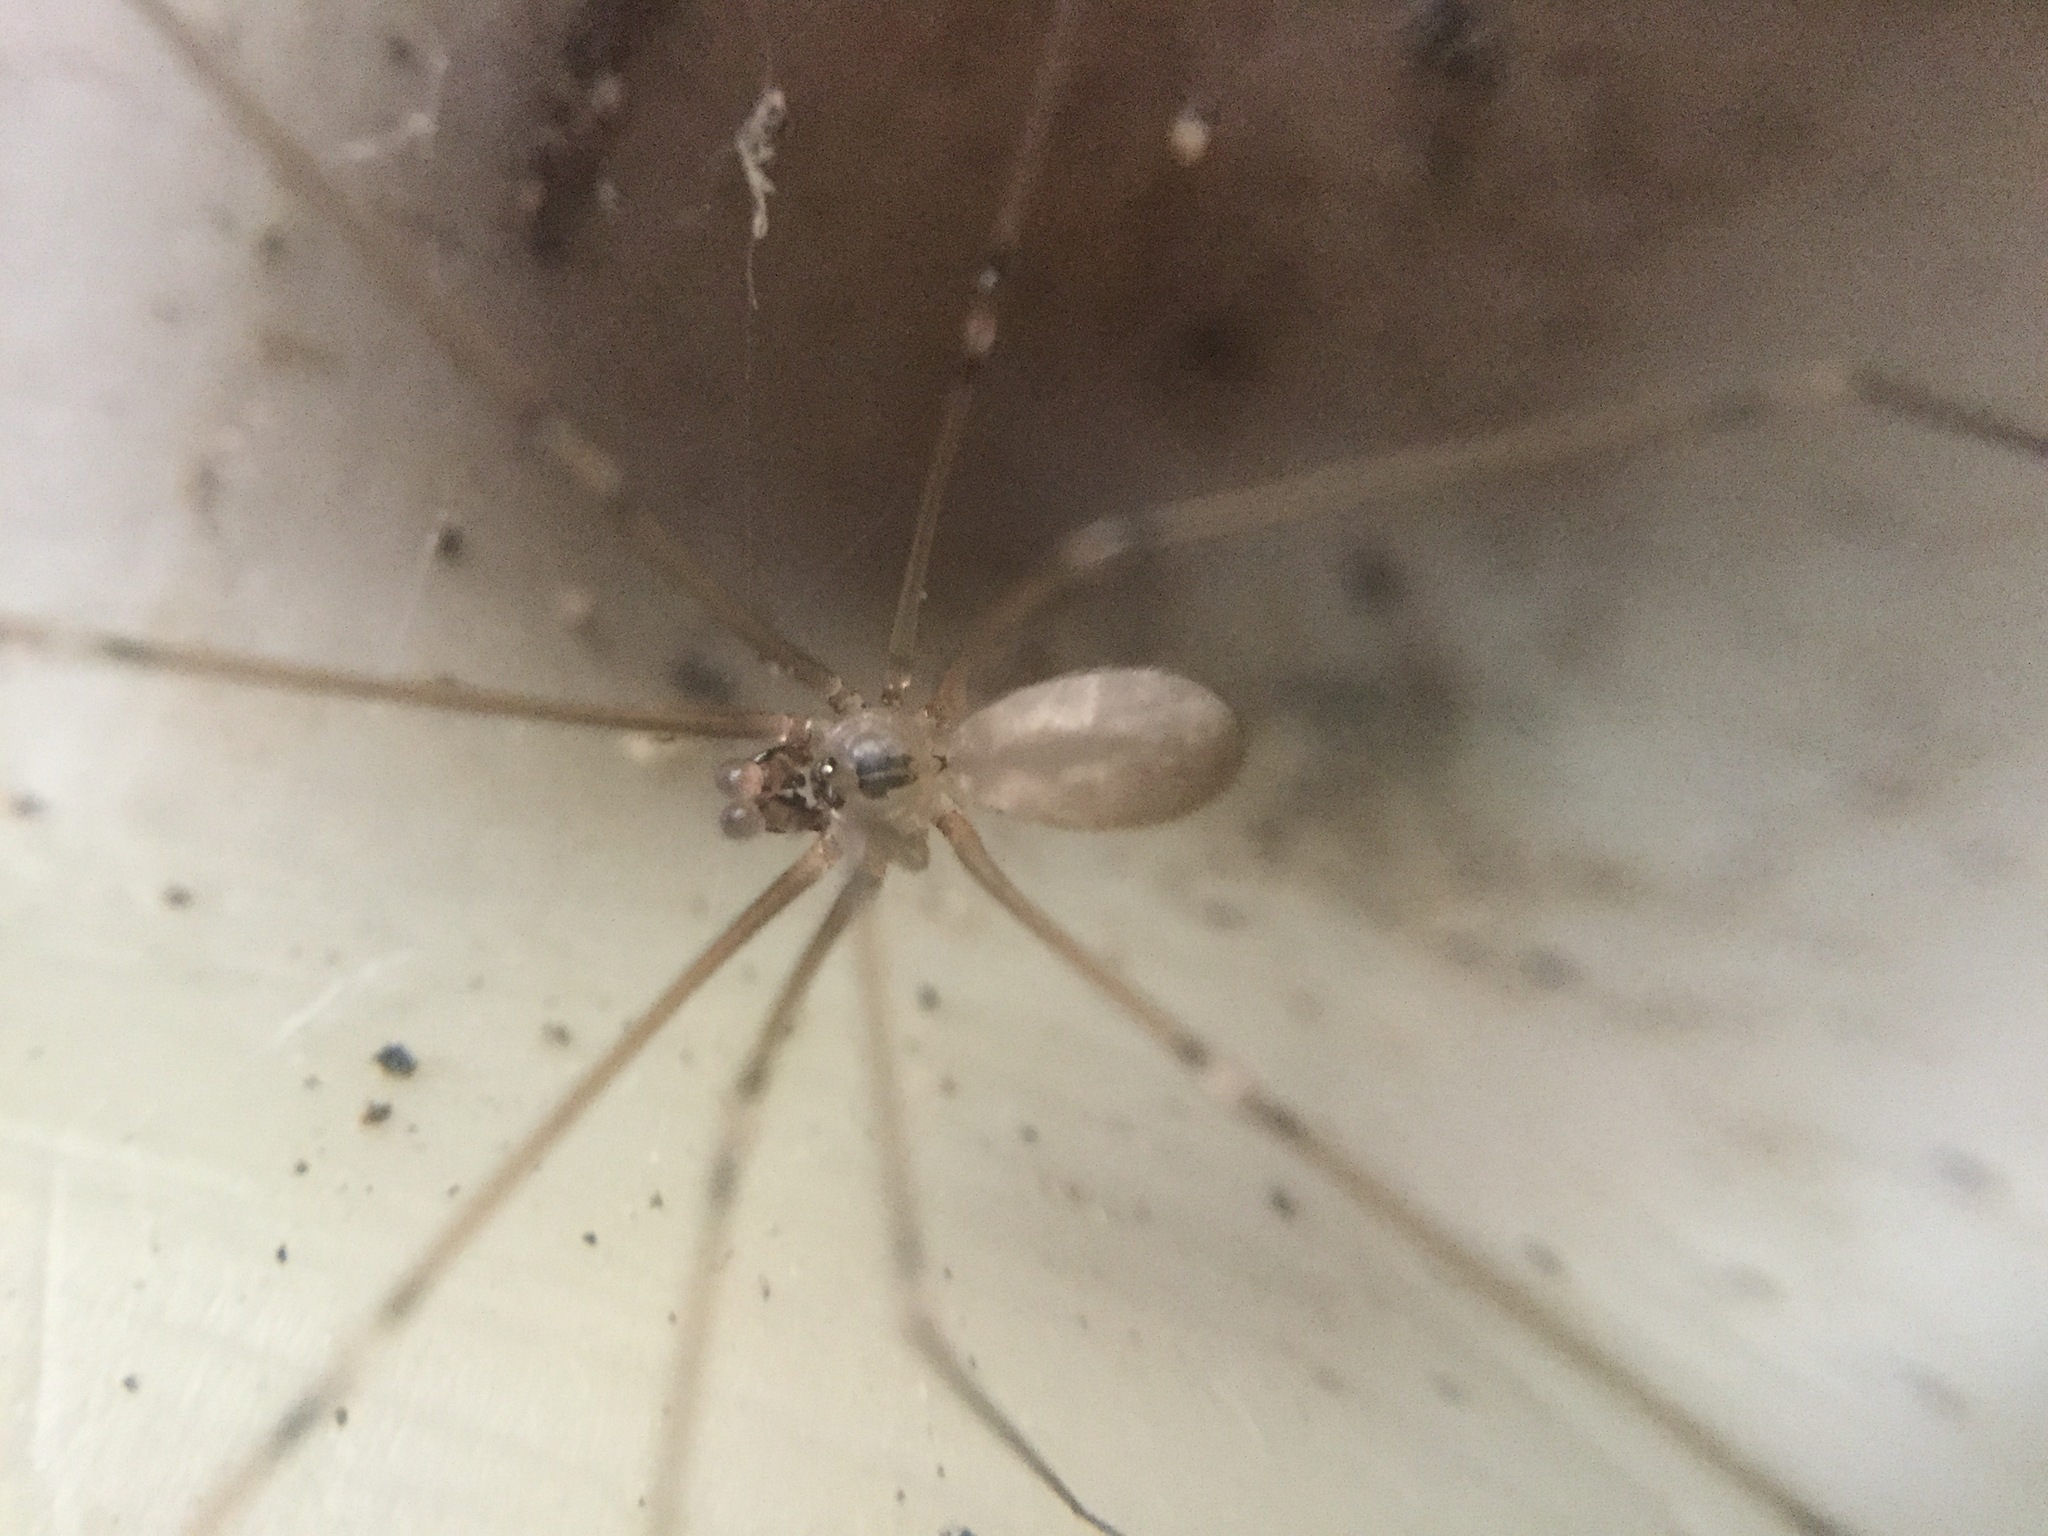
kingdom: Animalia
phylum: Arthropoda
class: Arachnida
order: Araneae
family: Pholcidae
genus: Pholcus
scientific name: Pholcus manueli
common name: Cellar spider
